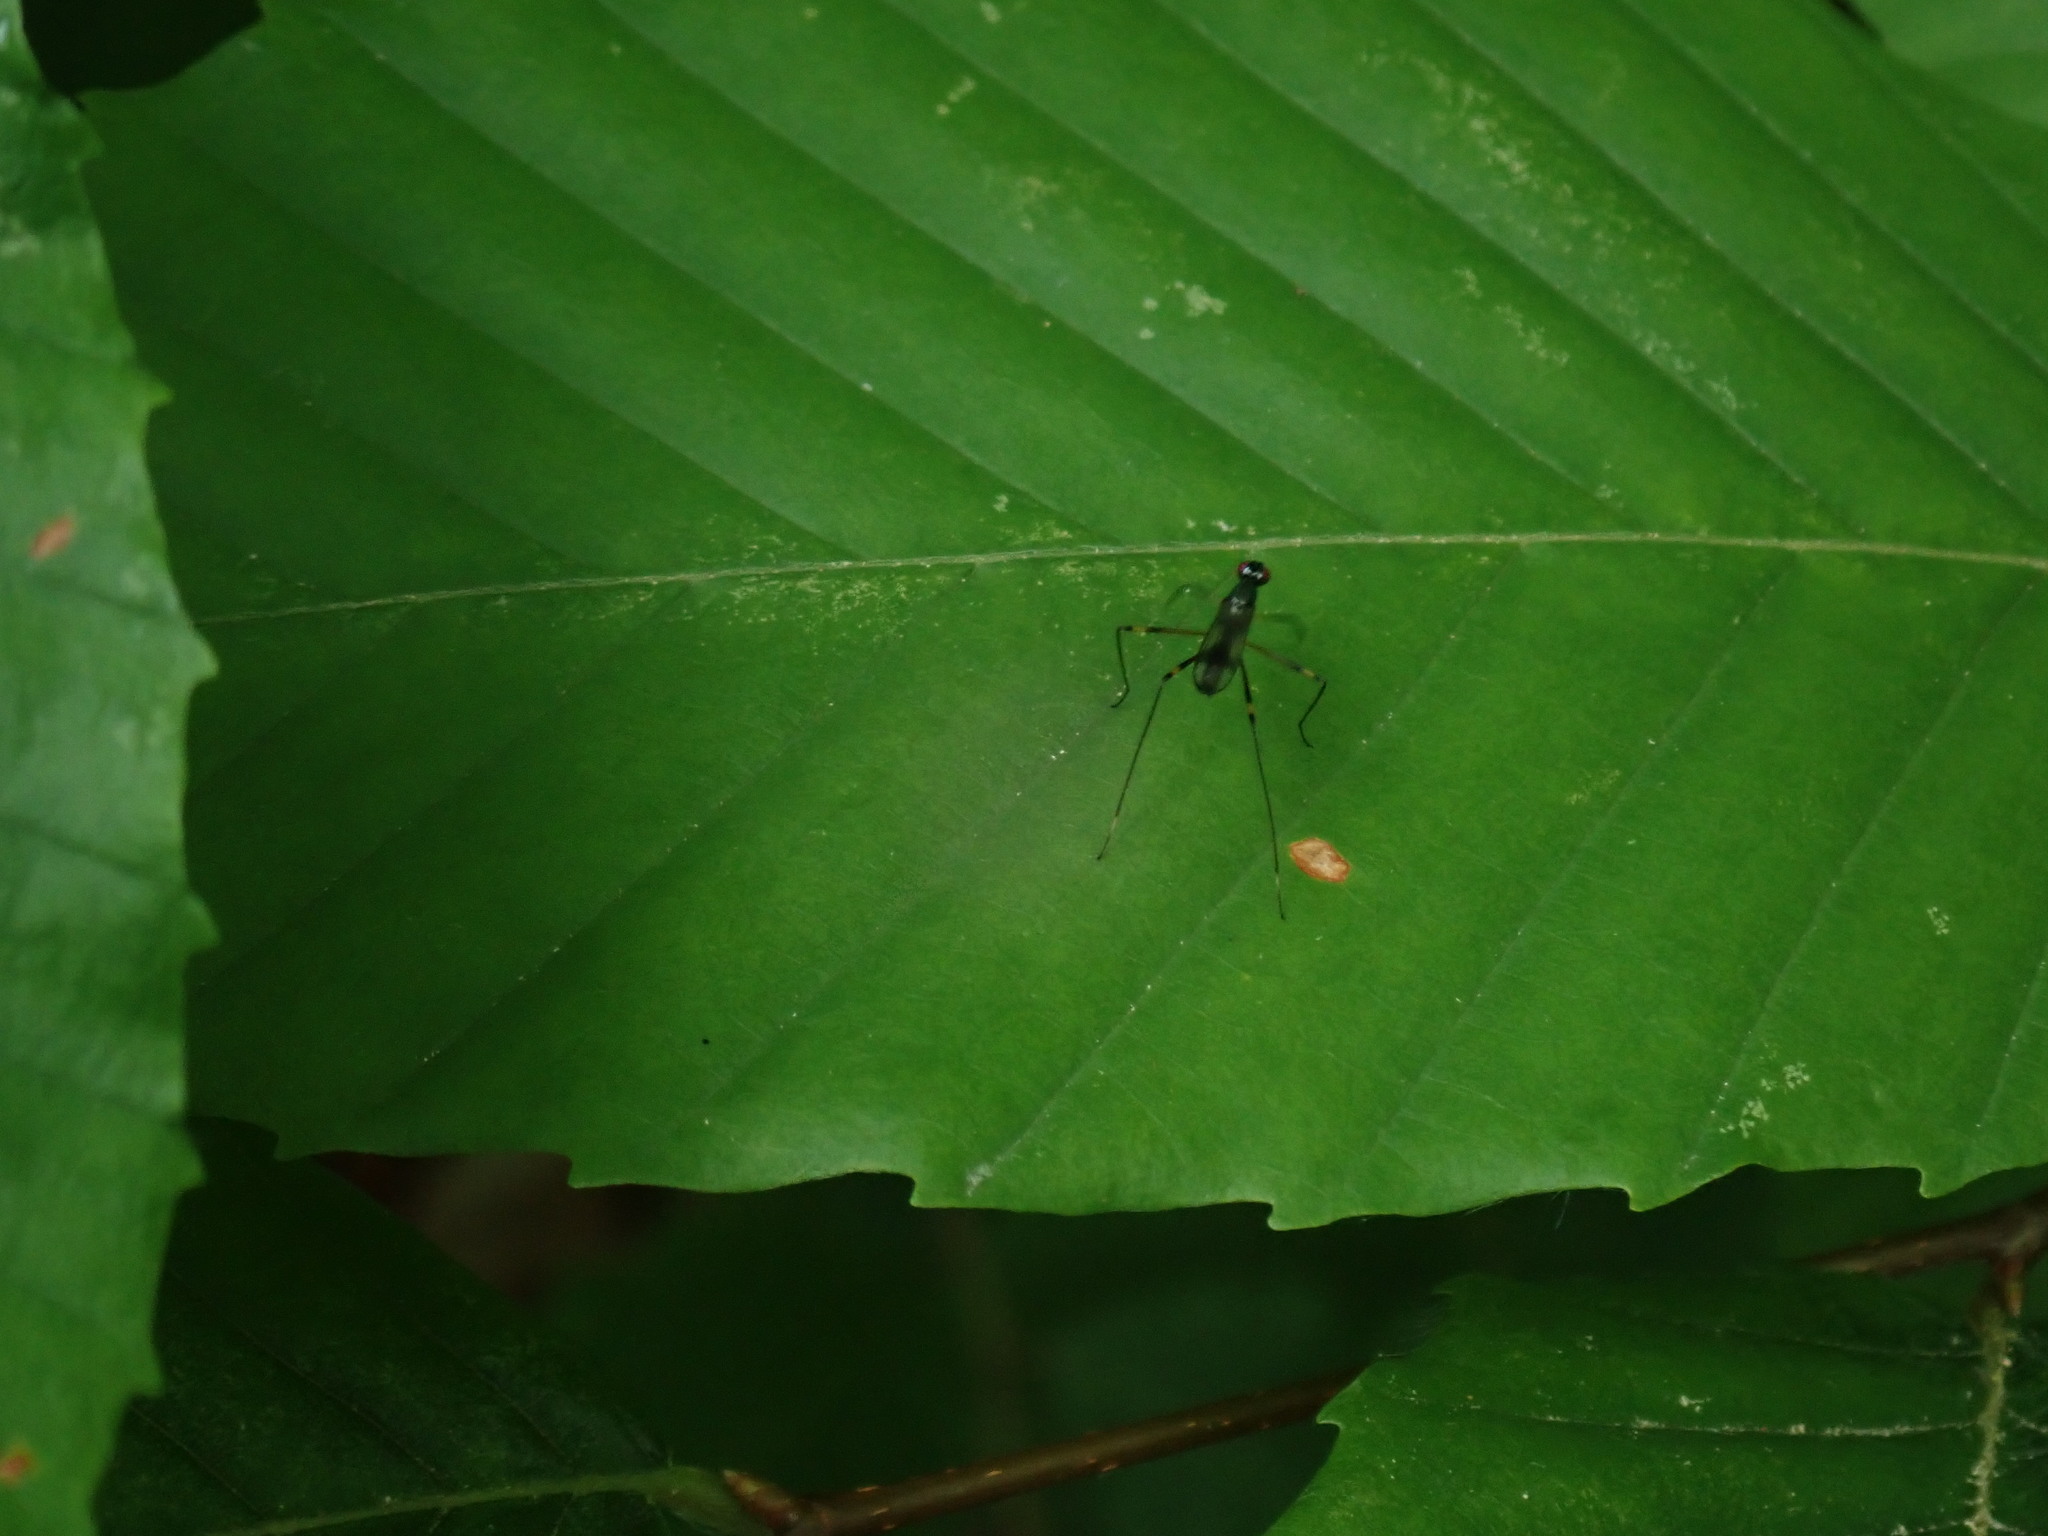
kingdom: Animalia
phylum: Arthropoda
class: Insecta
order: Diptera
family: Micropezidae
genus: Rainieria
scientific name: Rainieria antennaepes
